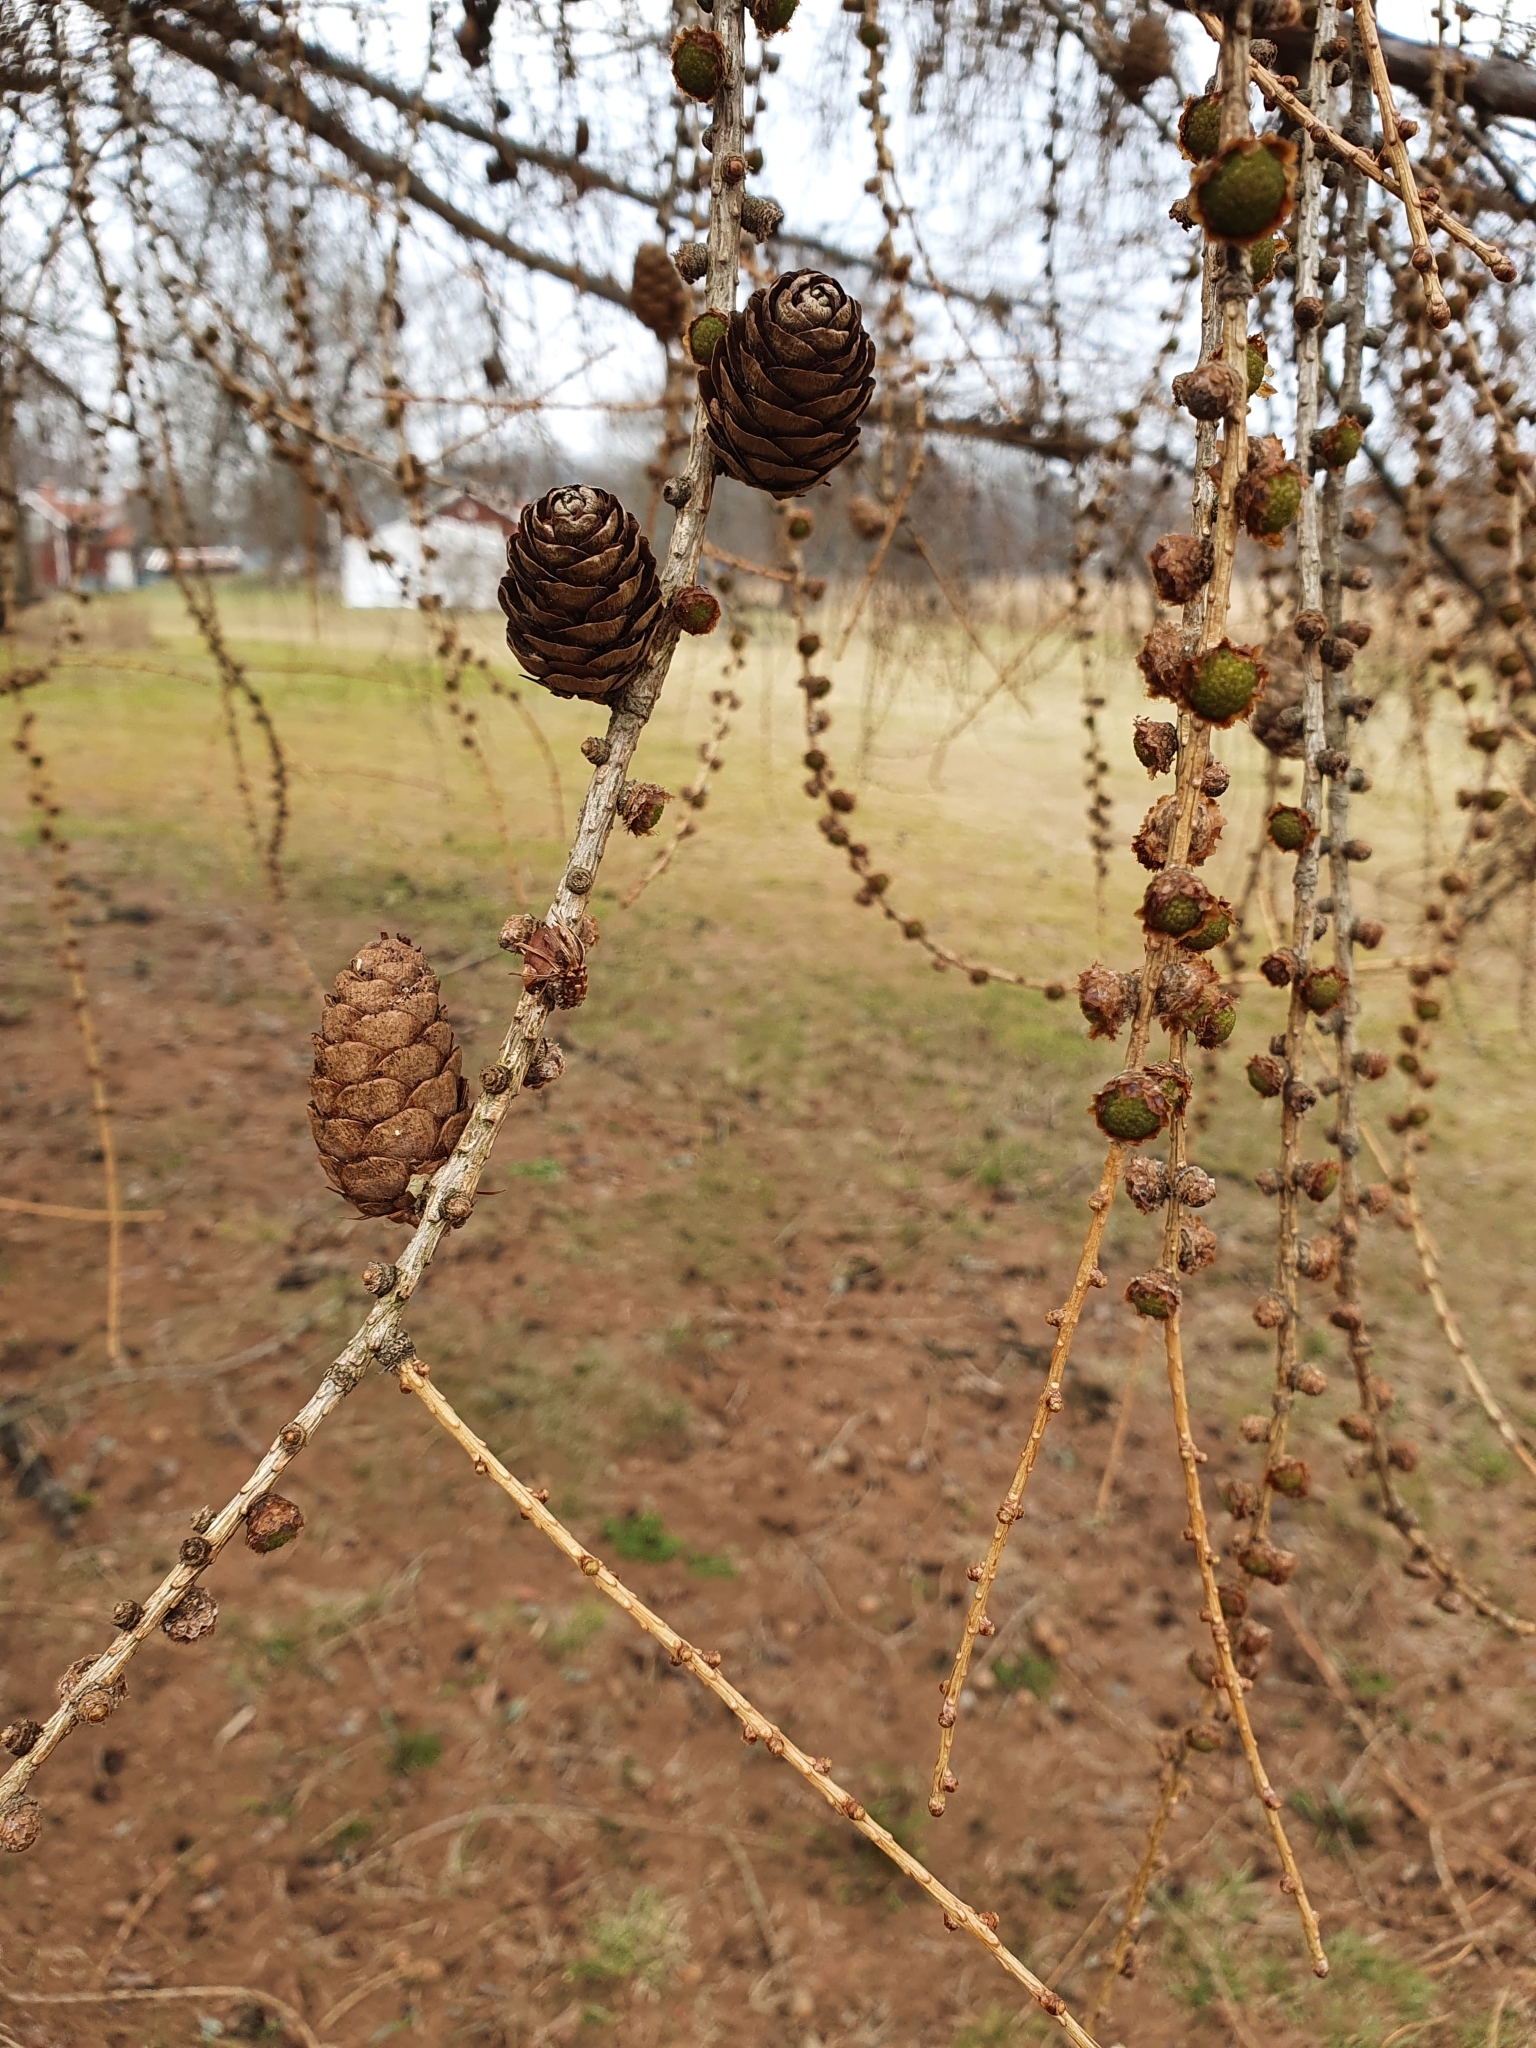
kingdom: Plantae
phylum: Tracheophyta
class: Pinopsida
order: Pinales
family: Pinaceae
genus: Larix
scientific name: Larix decidua
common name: European larch
